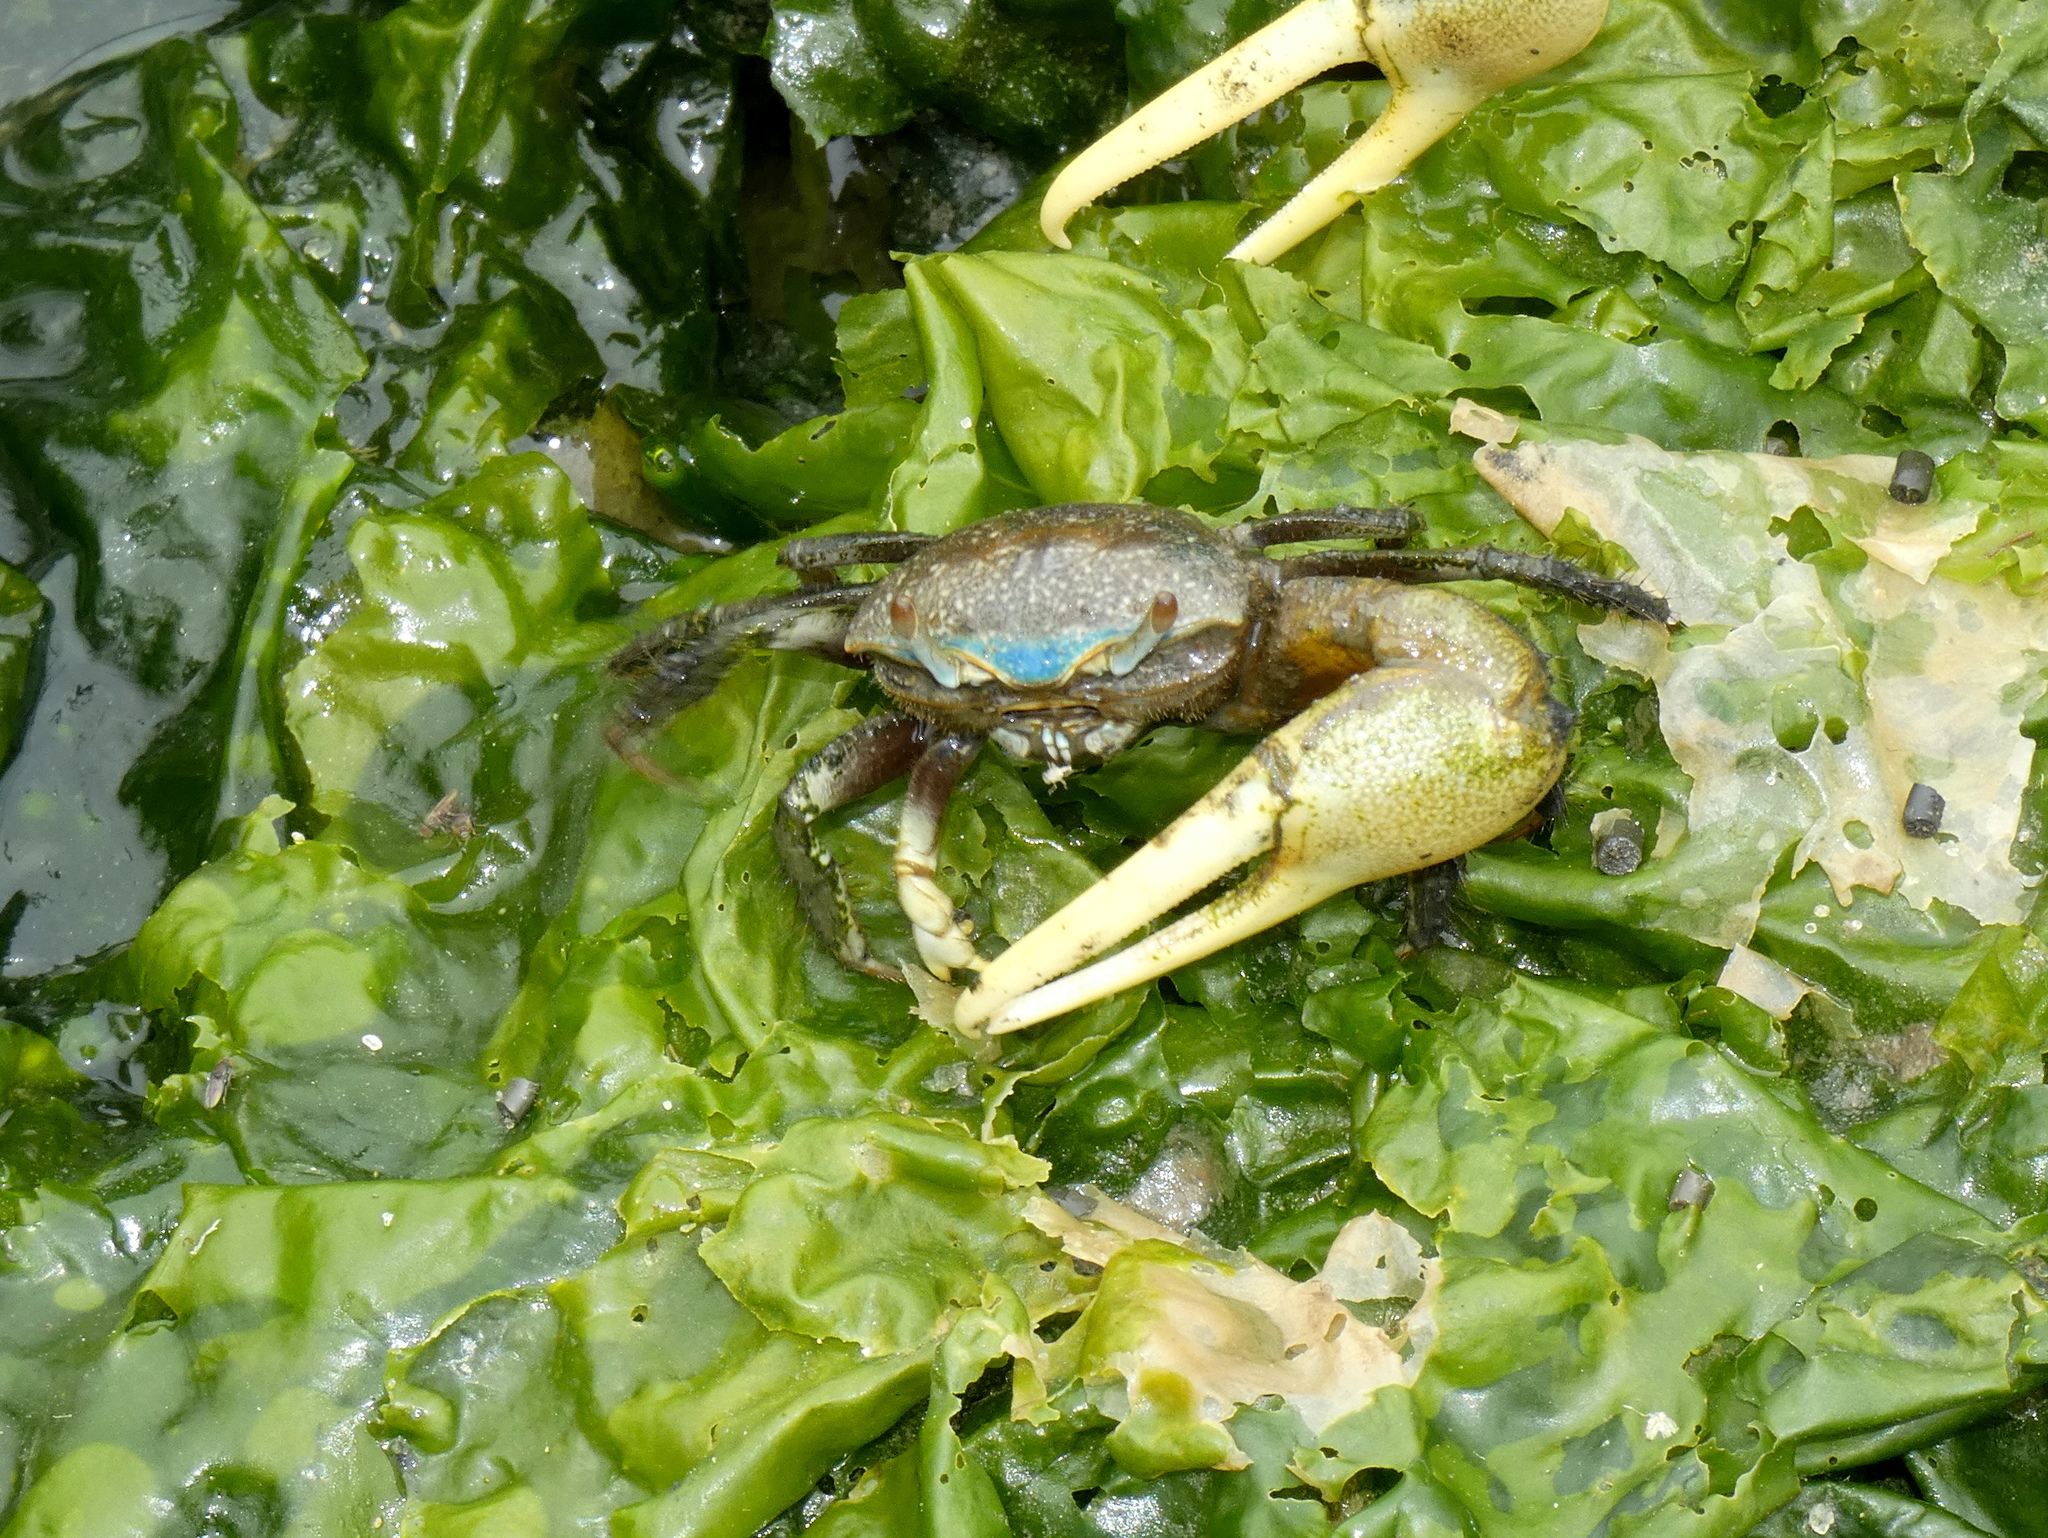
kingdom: Animalia
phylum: Arthropoda
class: Malacostraca
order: Decapoda
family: Ocypodidae
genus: Minuca
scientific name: Minuca pugnax
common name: Mud fiddler crab
